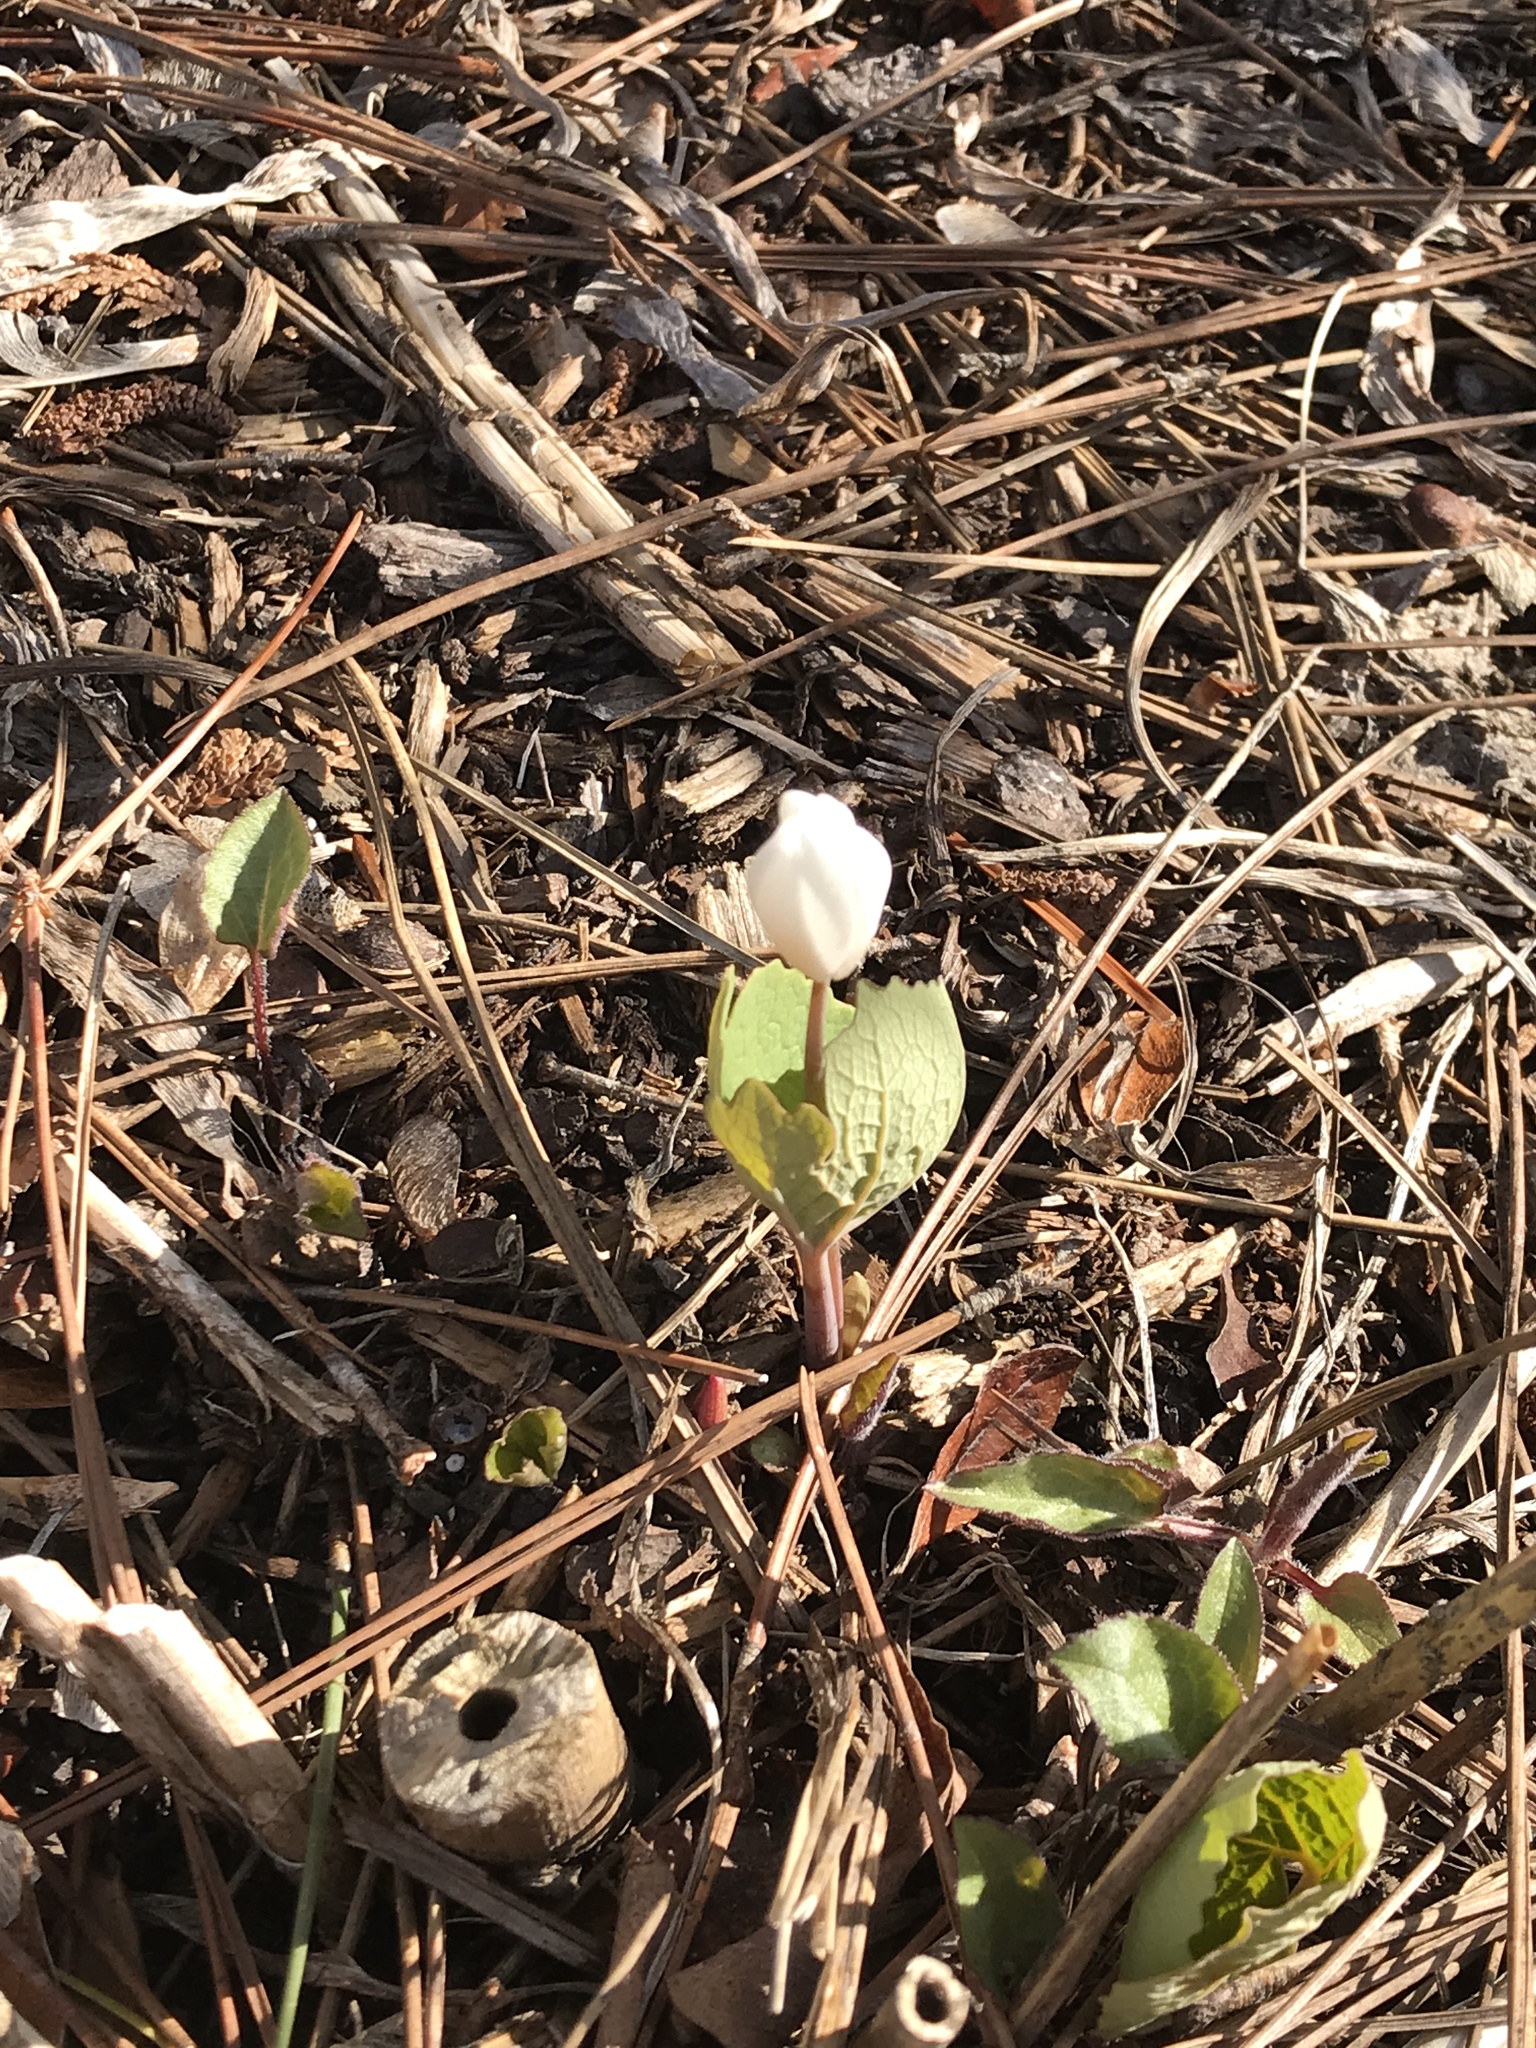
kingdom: Plantae
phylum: Tracheophyta
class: Magnoliopsida
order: Ranunculales
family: Papaveraceae
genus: Sanguinaria
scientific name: Sanguinaria canadensis
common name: Bloodroot
